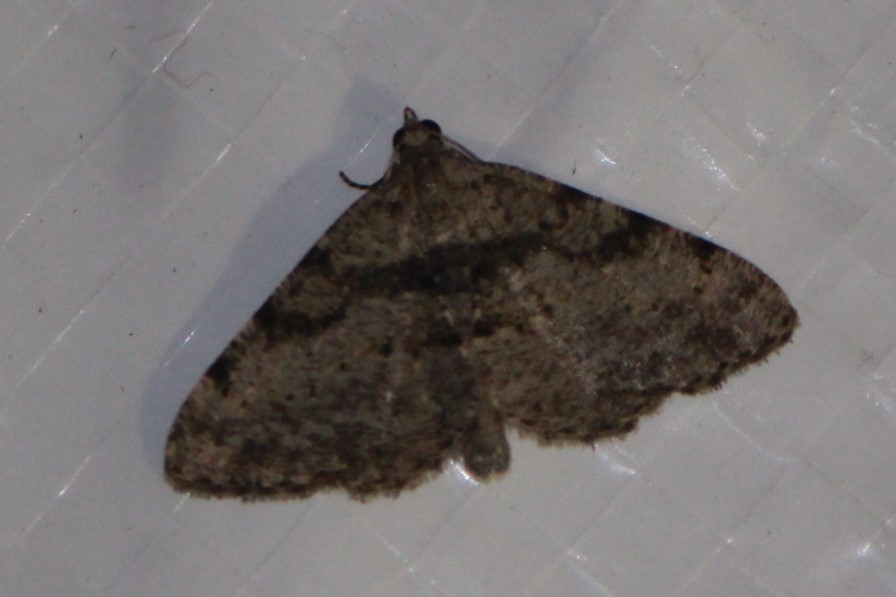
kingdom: Animalia
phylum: Arthropoda
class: Insecta
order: Lepidoptera
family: Geometridae
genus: Digrammia
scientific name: Digrammia gnophosaria
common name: Hollow-spotted angle
